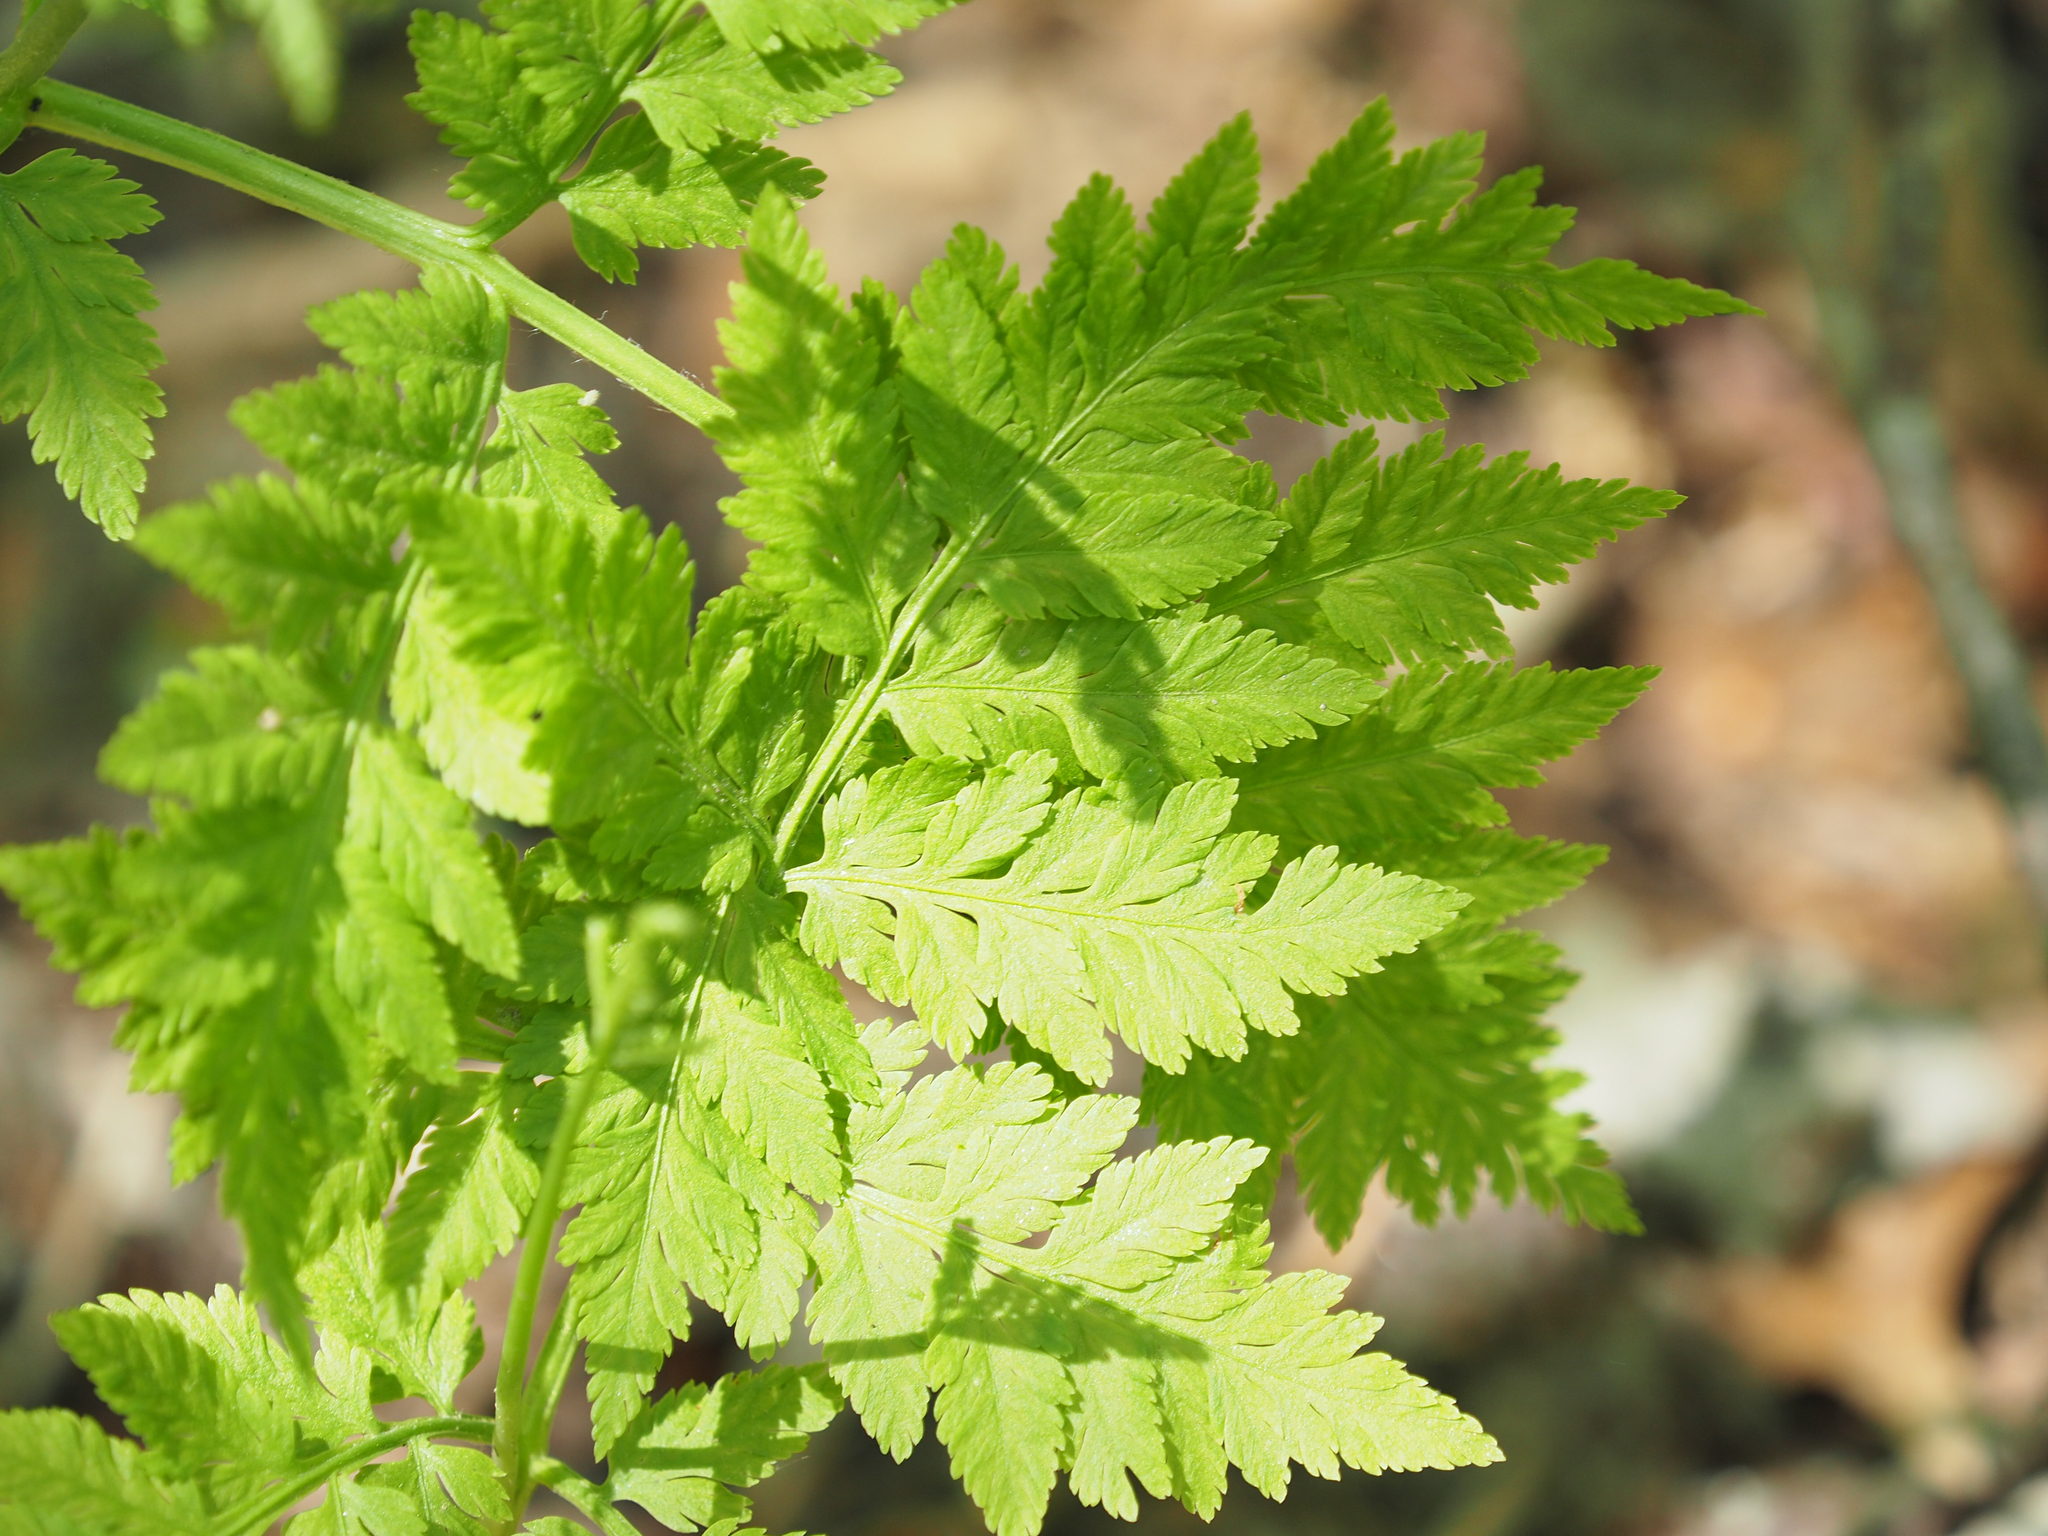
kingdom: Plantae
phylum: Tracheophyta
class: Polypodiopsida
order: Ophioglossales
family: Ophioglossaceae
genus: Botrypus
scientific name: Botrypus virginianus
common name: Common grapefern
